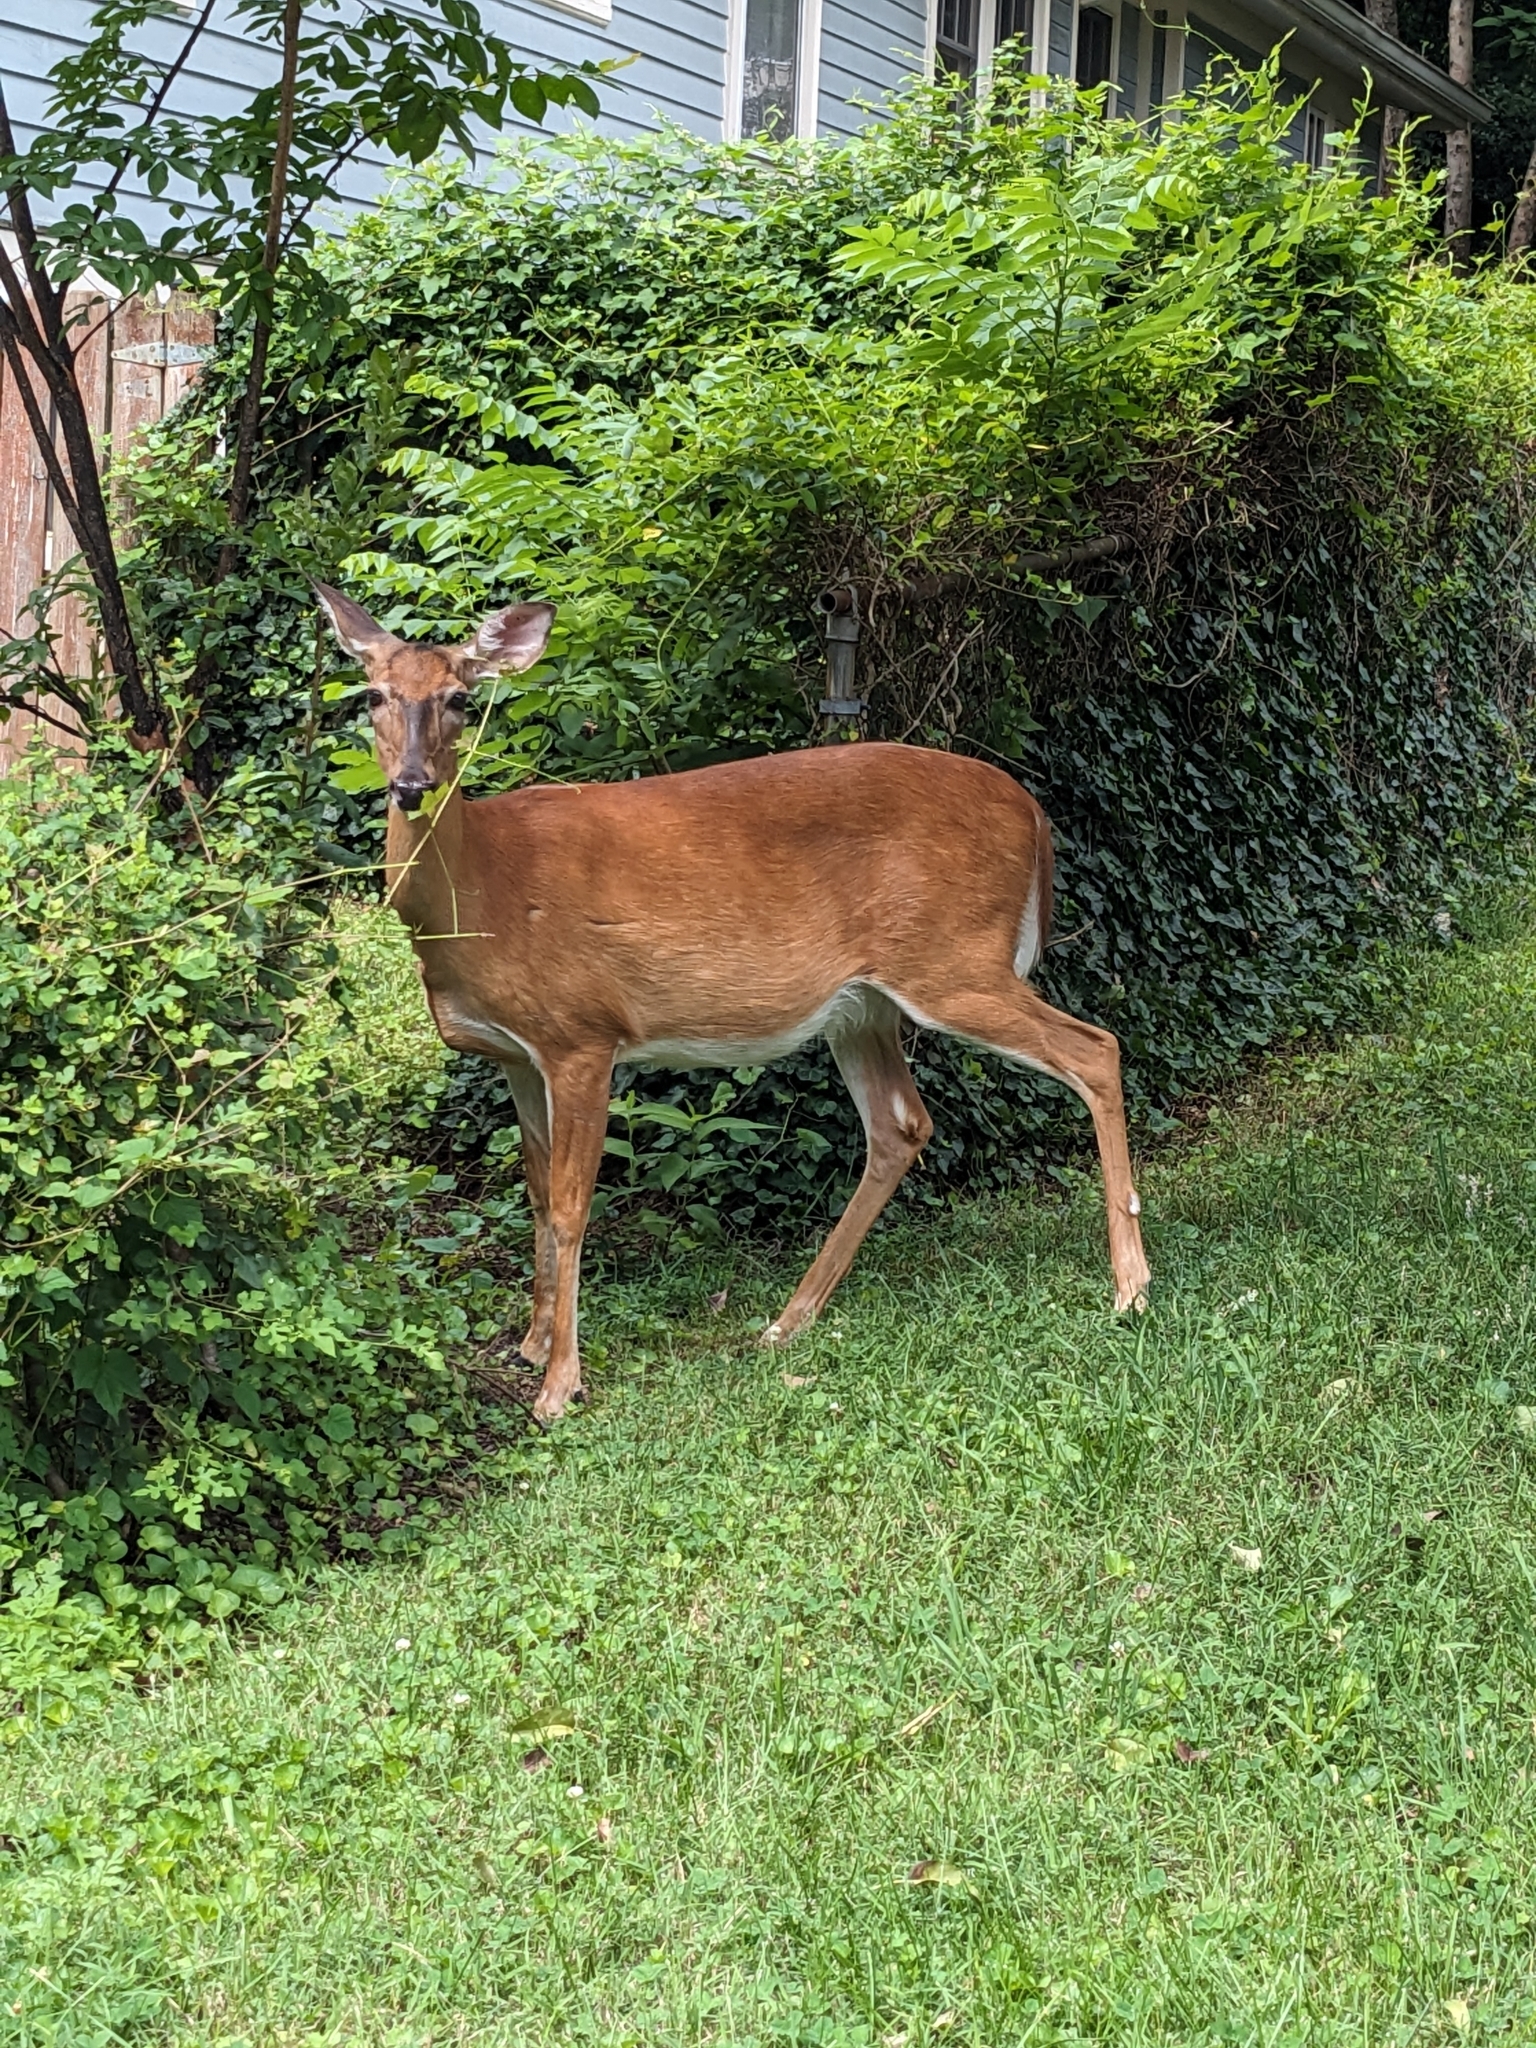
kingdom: Animalia
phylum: Chordata
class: Mammalia
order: Artiodactyla
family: Cervidae
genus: Odocoileus
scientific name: Odocoileus virginianus
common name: White-tailed deer
